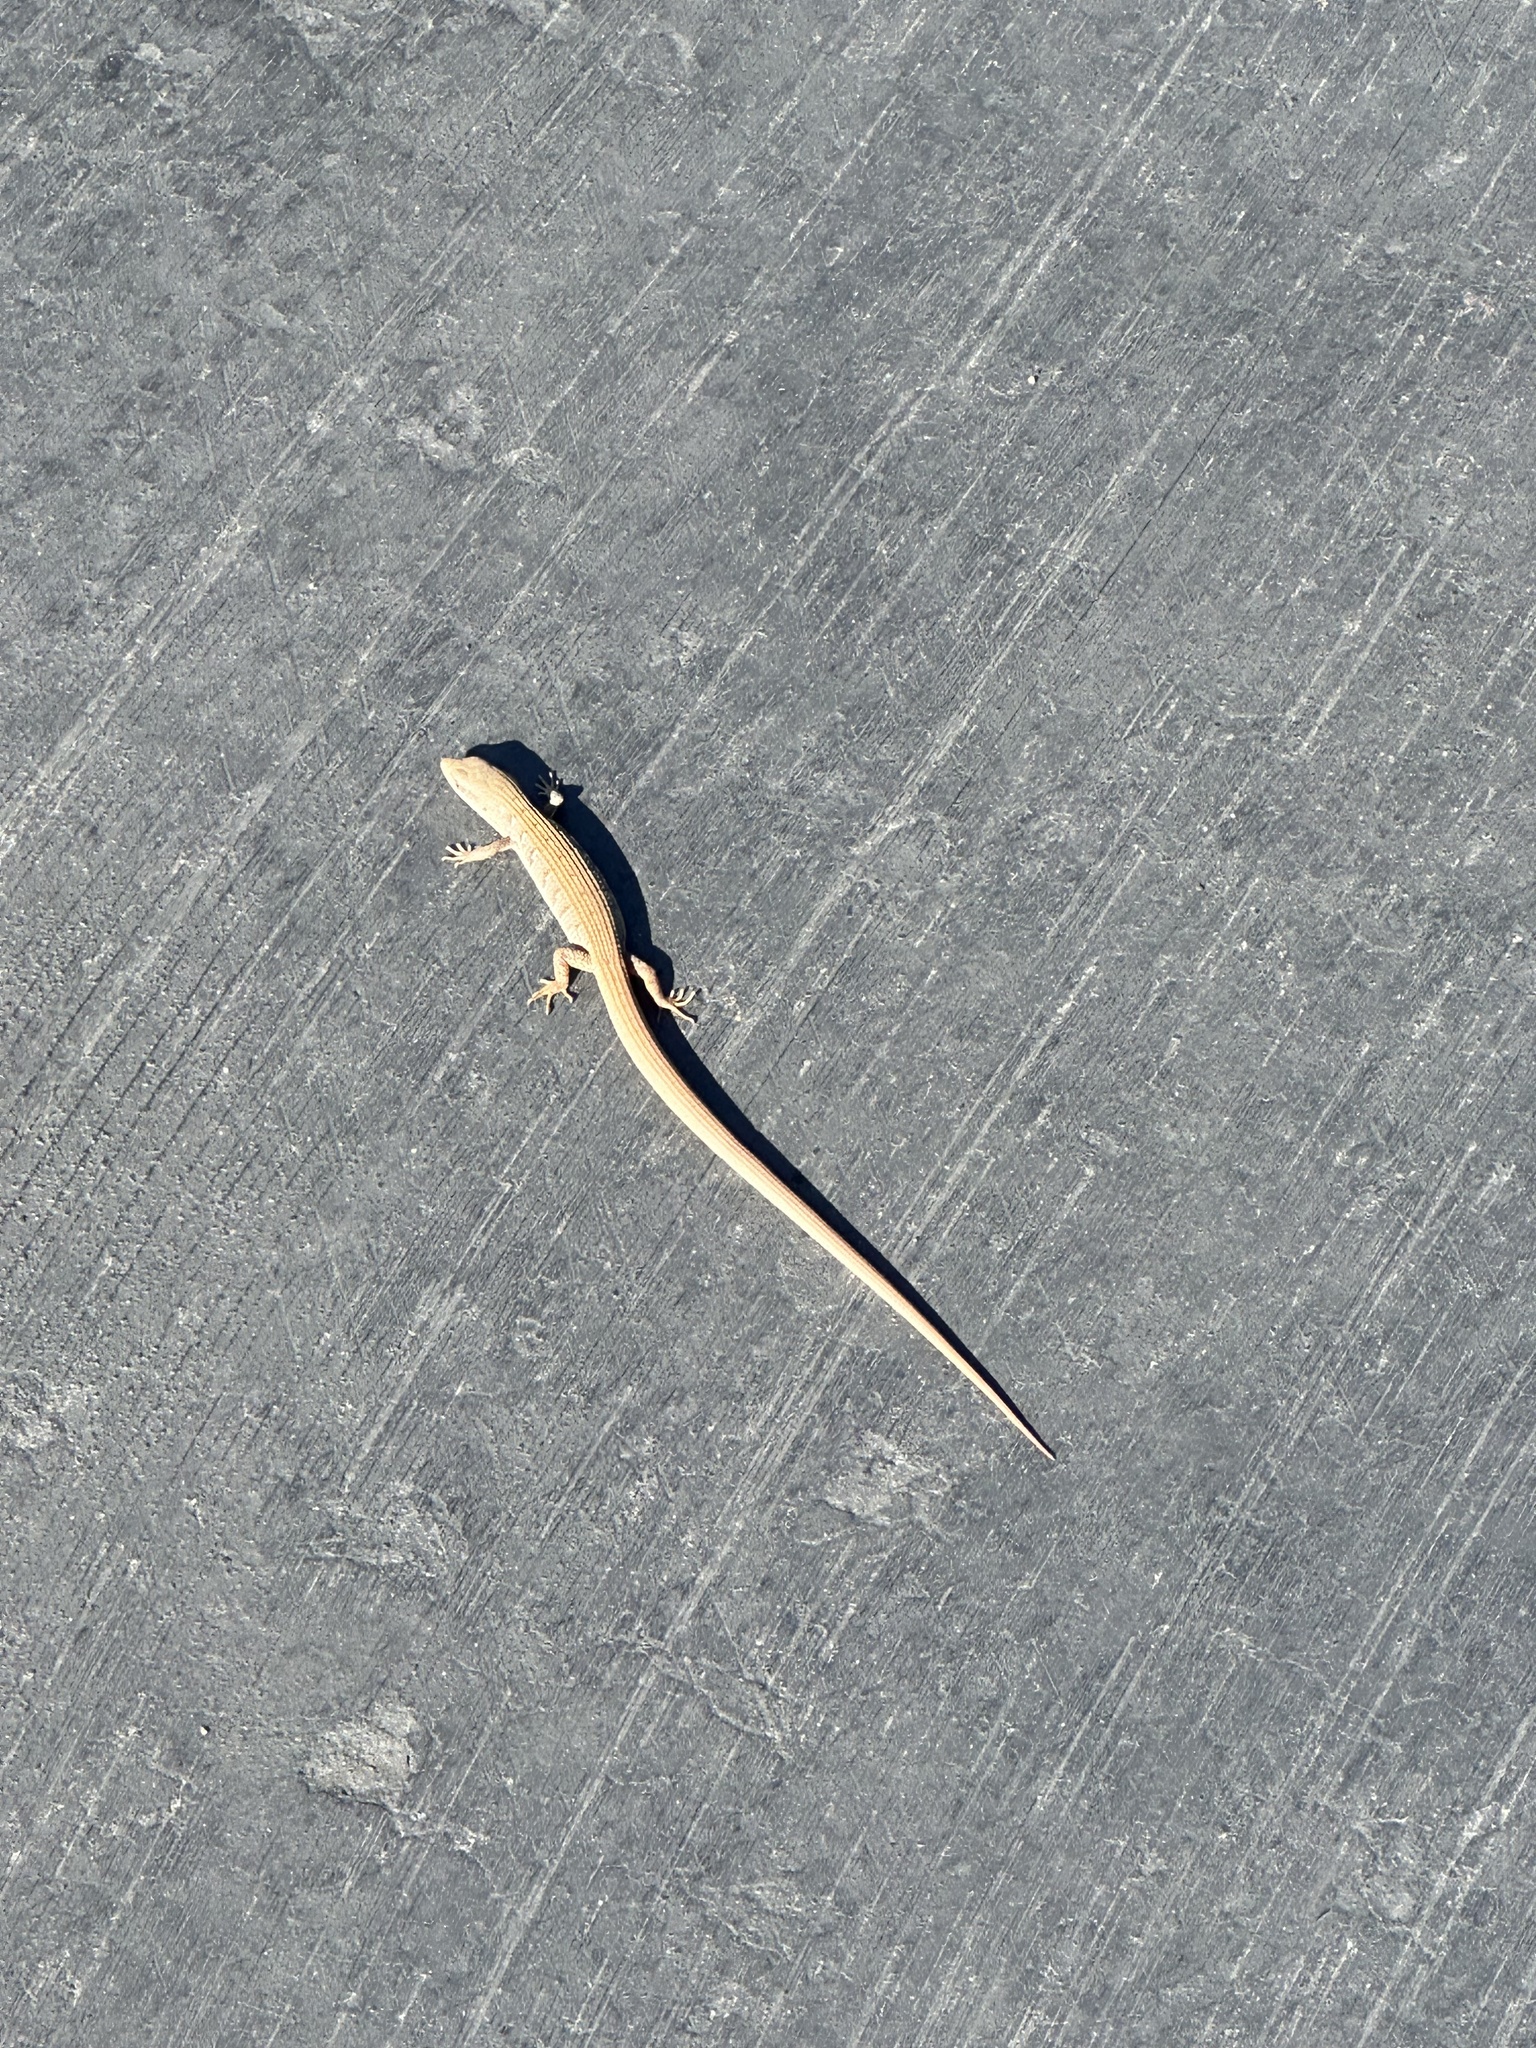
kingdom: Animalia
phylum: Chordata
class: Squamata
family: Anguidae
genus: Elgaria
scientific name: Elgaria multicarinata
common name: Southern alligator lizard
